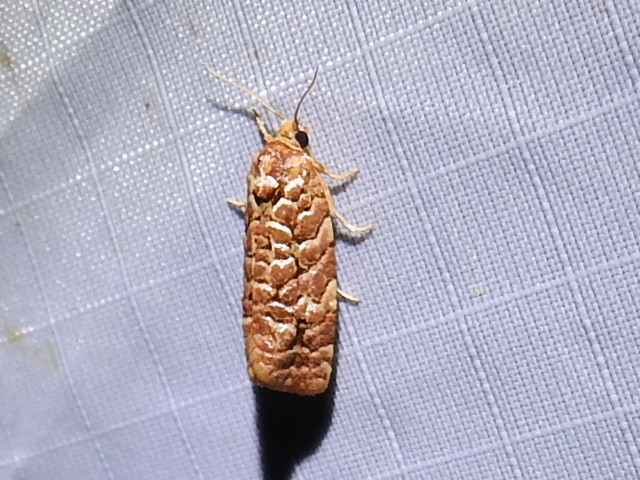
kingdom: Animalia
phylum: Arthropoda
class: Insecta
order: Lepidoptera
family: Tortricidae
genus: Choristoneura
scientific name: Choristoneura houstonana
